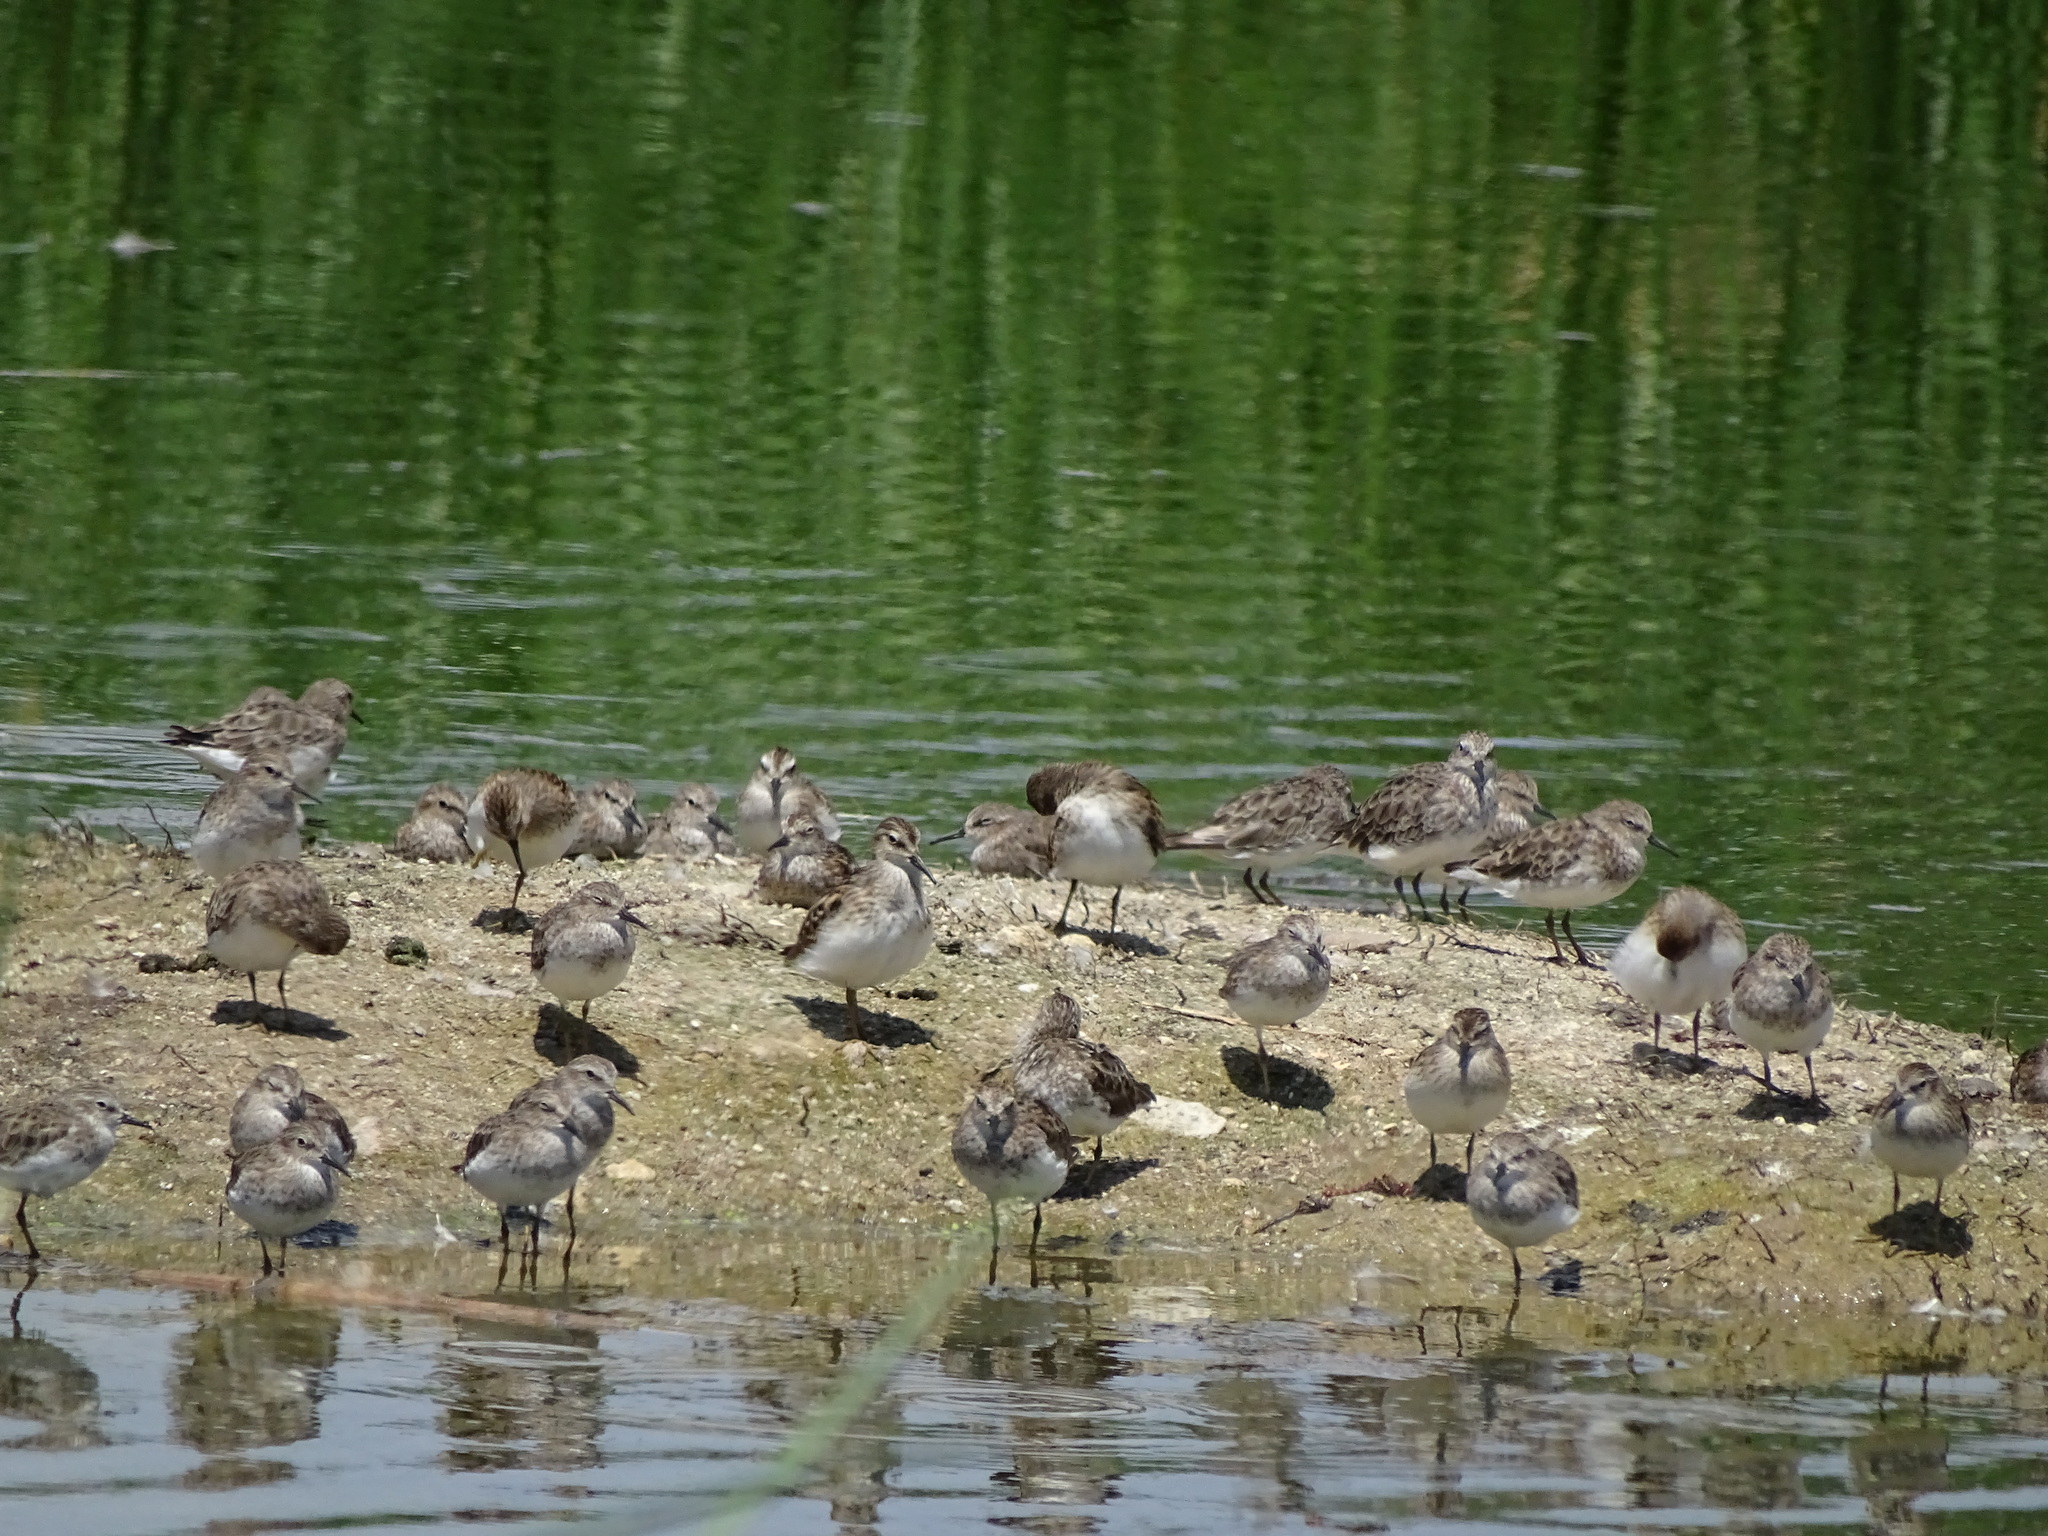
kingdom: Animalia
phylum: Chordata
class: Aves
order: Charadriiformes
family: Scolopacidae
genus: Calidris
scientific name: Calidris minutilla
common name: Least sandpiper
